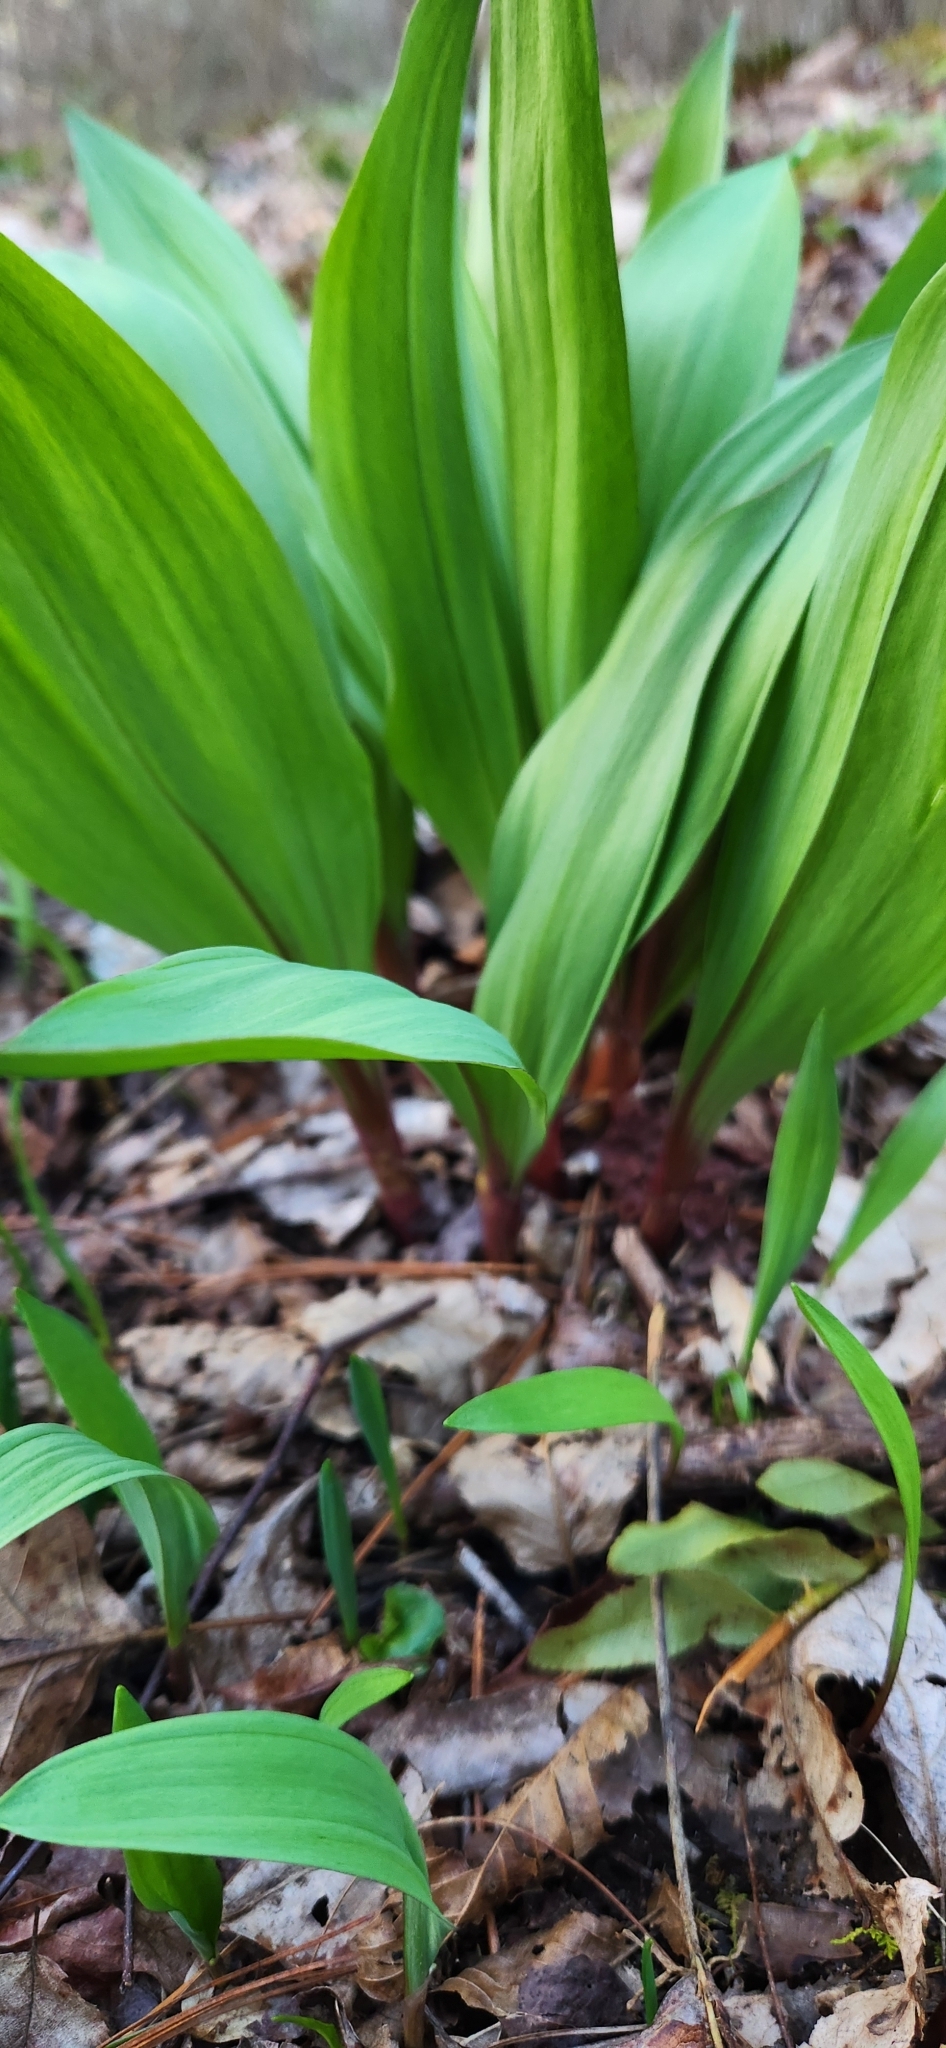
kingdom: Plantae
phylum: Tracheophyta
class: Liliopsida
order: Asparagales
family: Amaryllidaceae
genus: Allium
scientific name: Allium tricoccum
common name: Ramp
